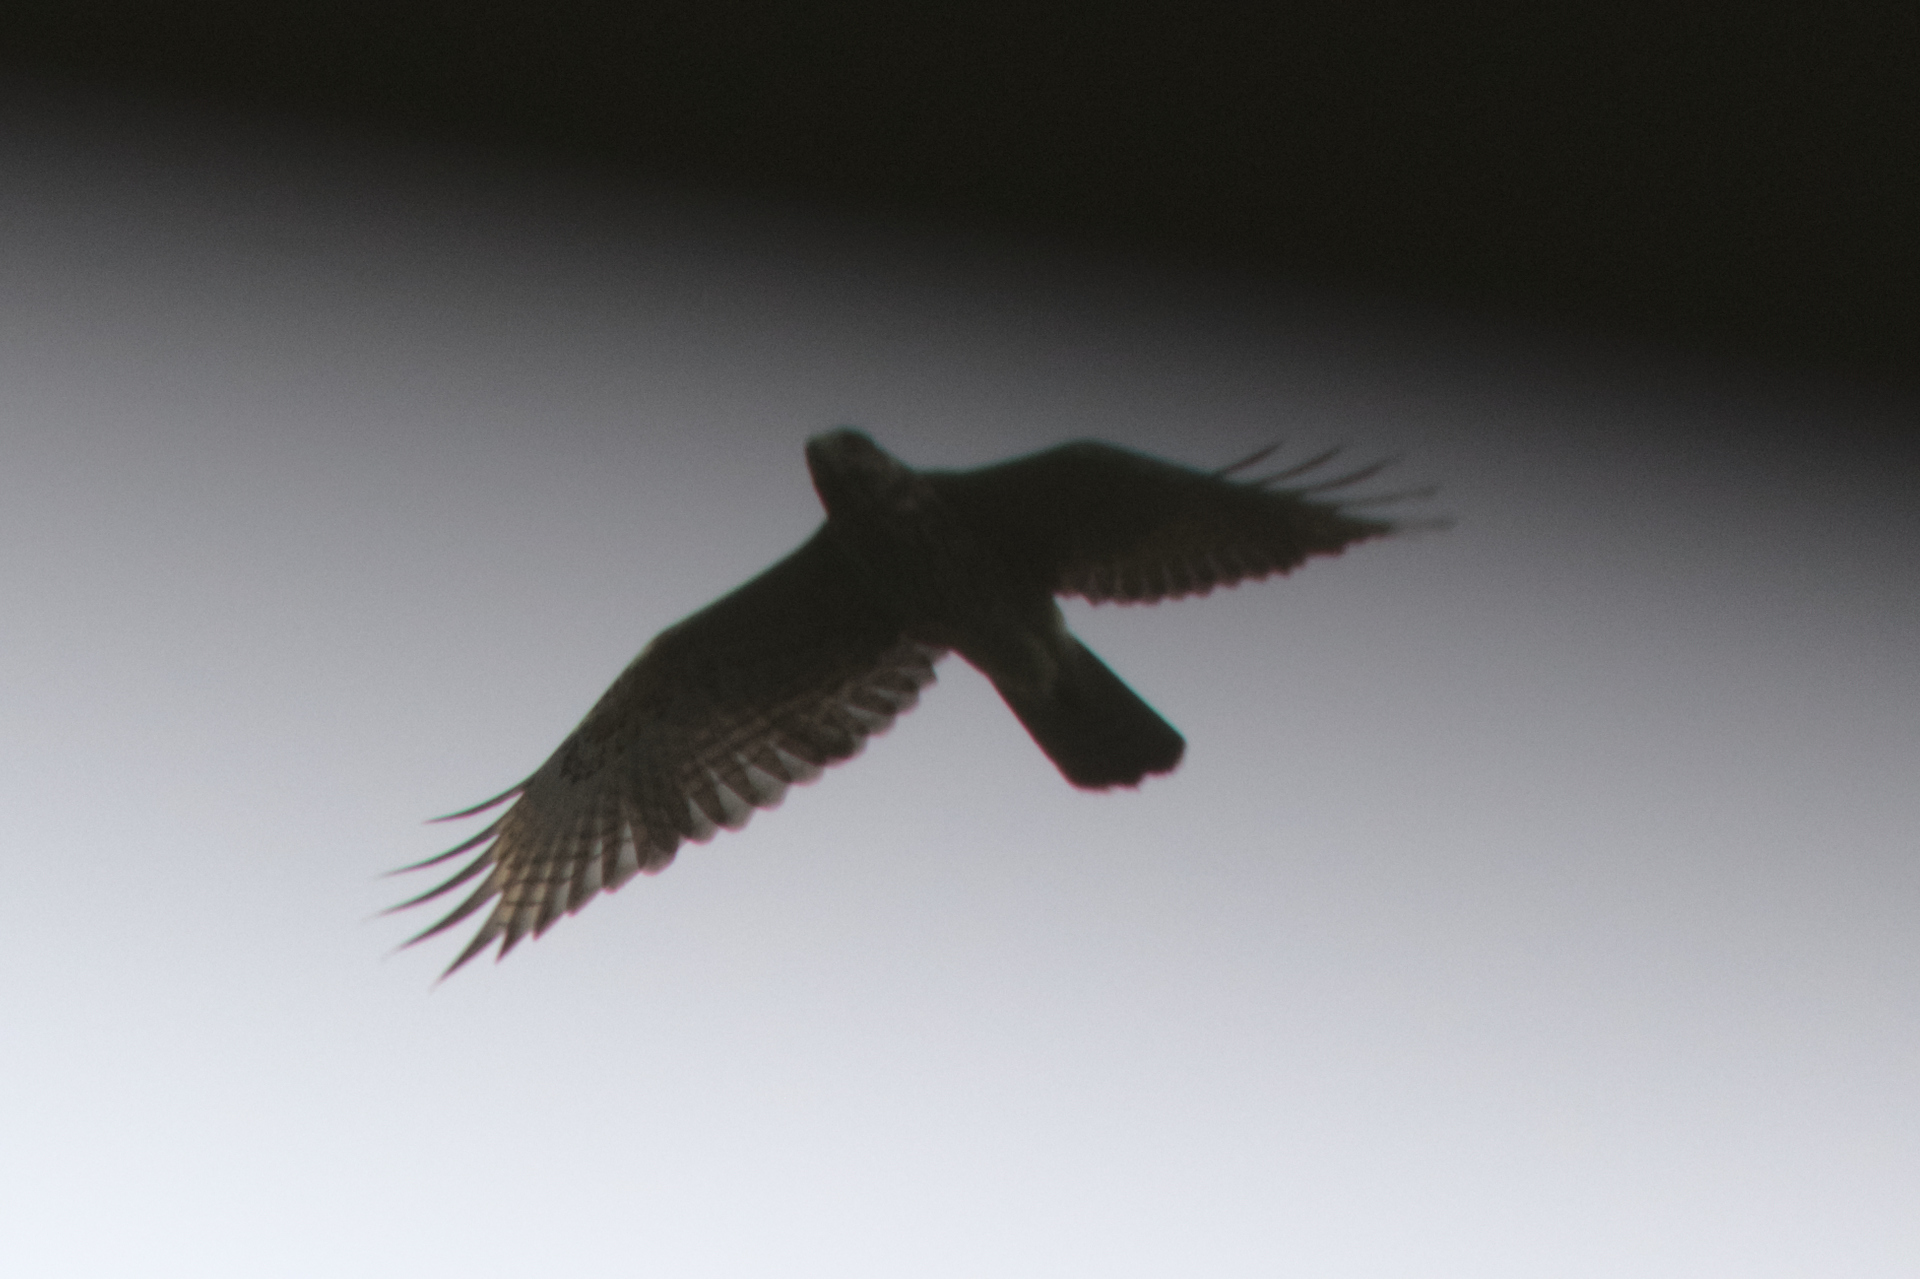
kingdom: Animalia
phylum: Chordata
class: Aves
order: Accipitriformes
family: Accipitridae
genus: Buteo
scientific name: Buteo lineatus
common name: Red-shouldered hawk
